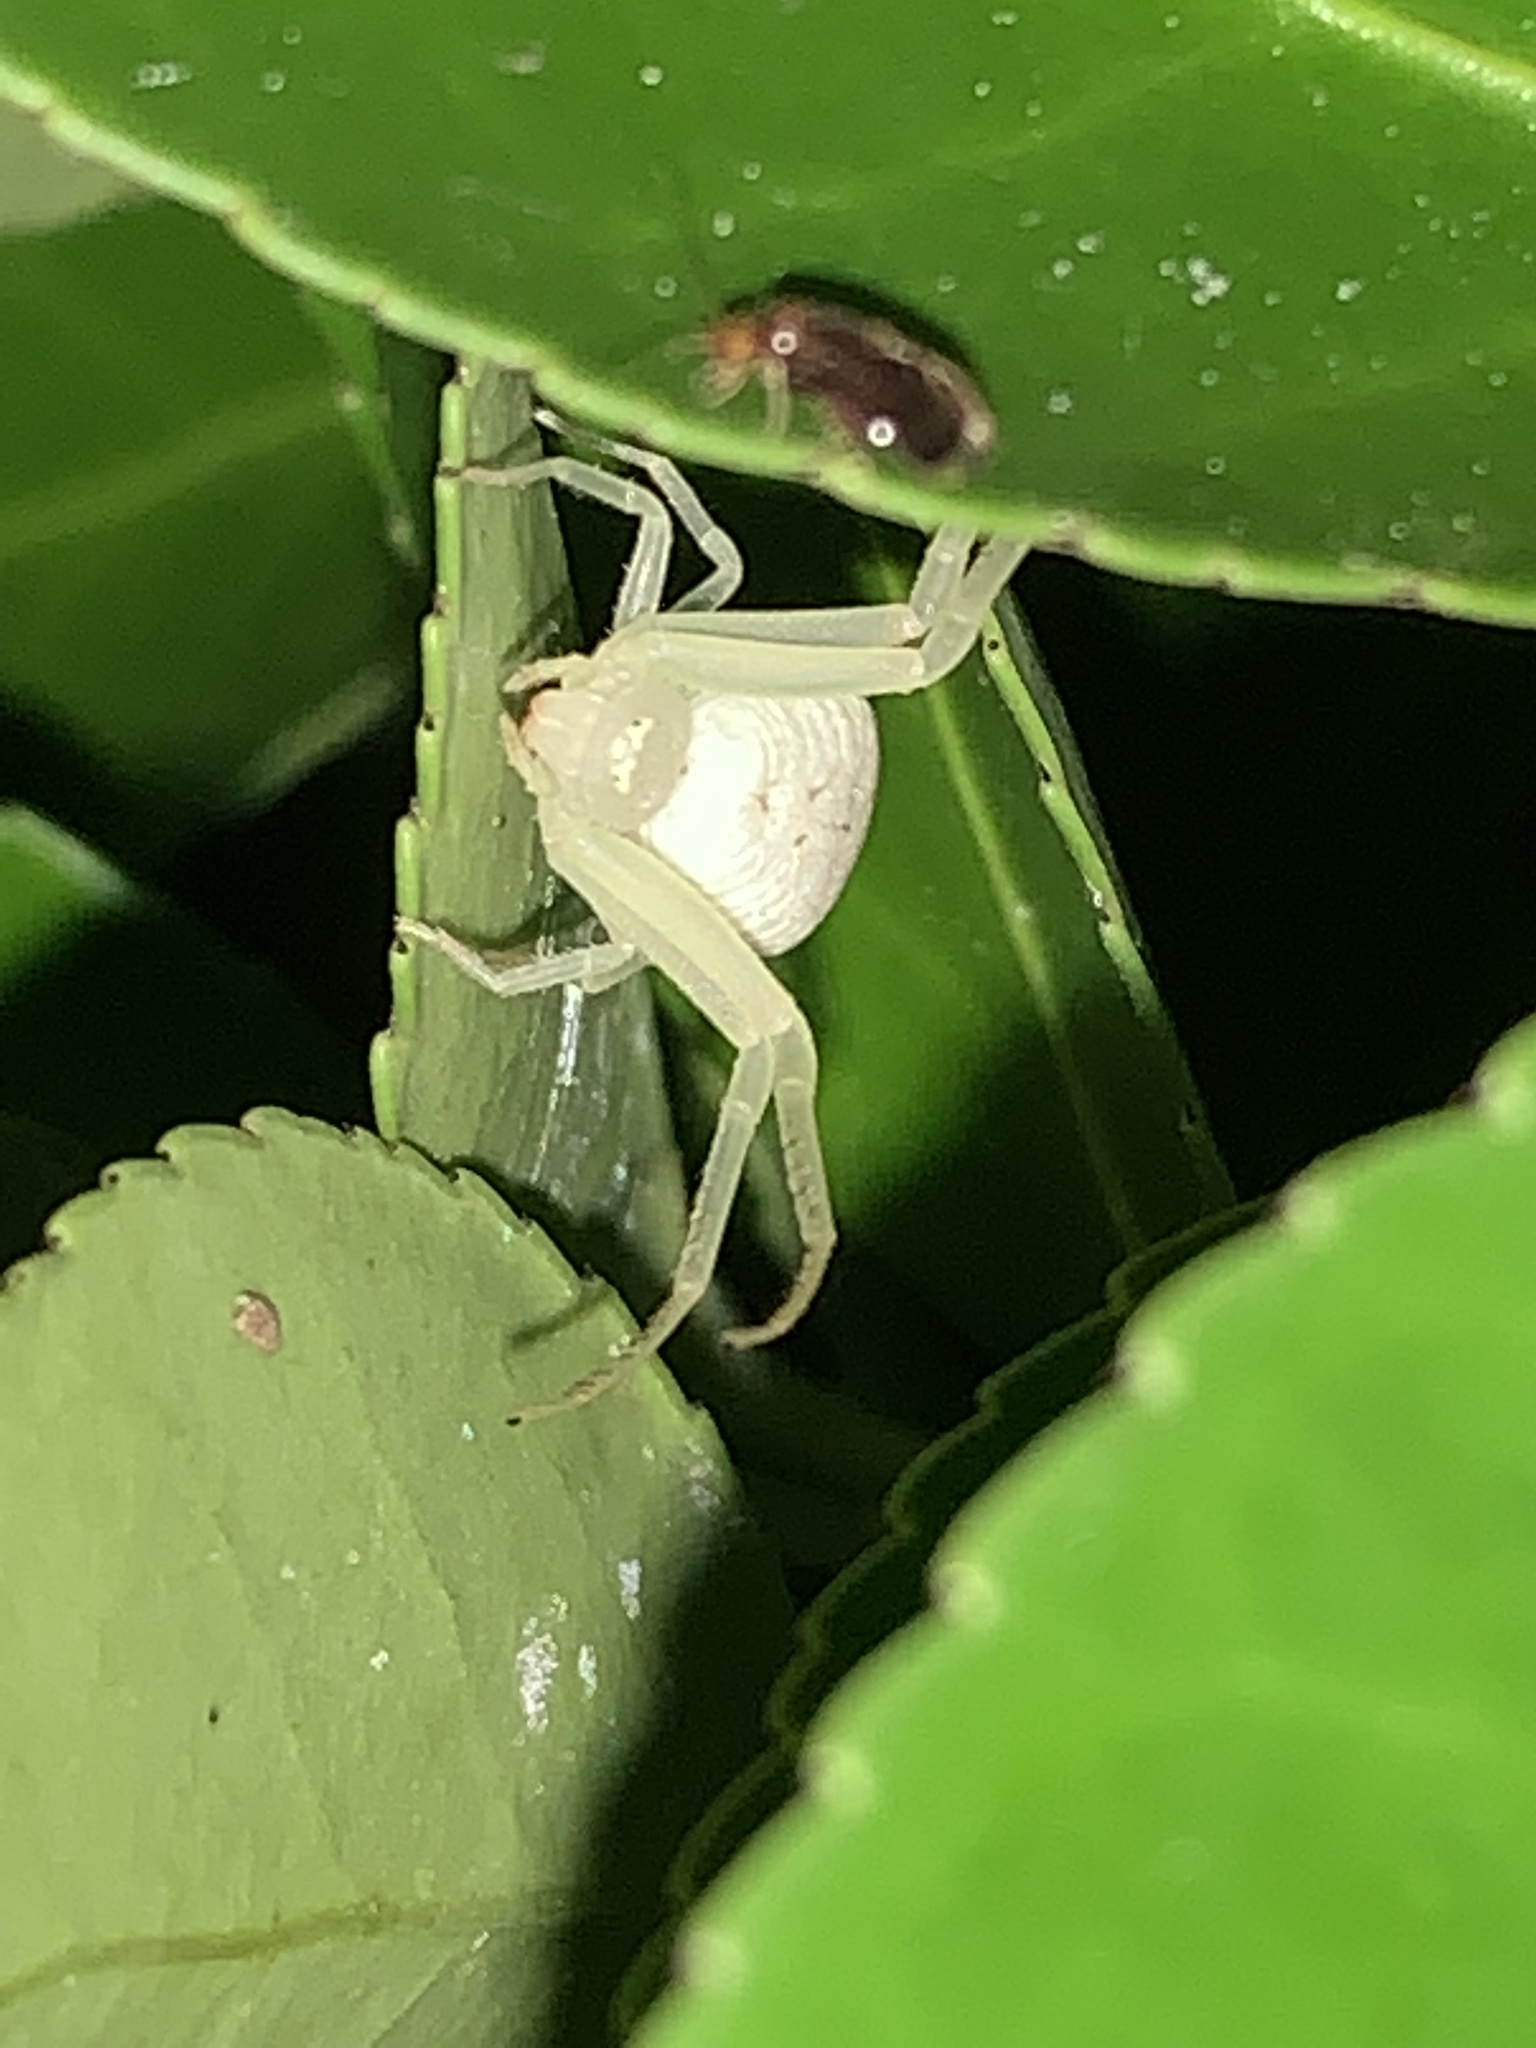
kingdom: Animalia
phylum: Arthropoda
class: Arachnida
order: Araneae
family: Thomisidae
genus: Misumessus
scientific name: Misumessus oblongus
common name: American green crab spider
